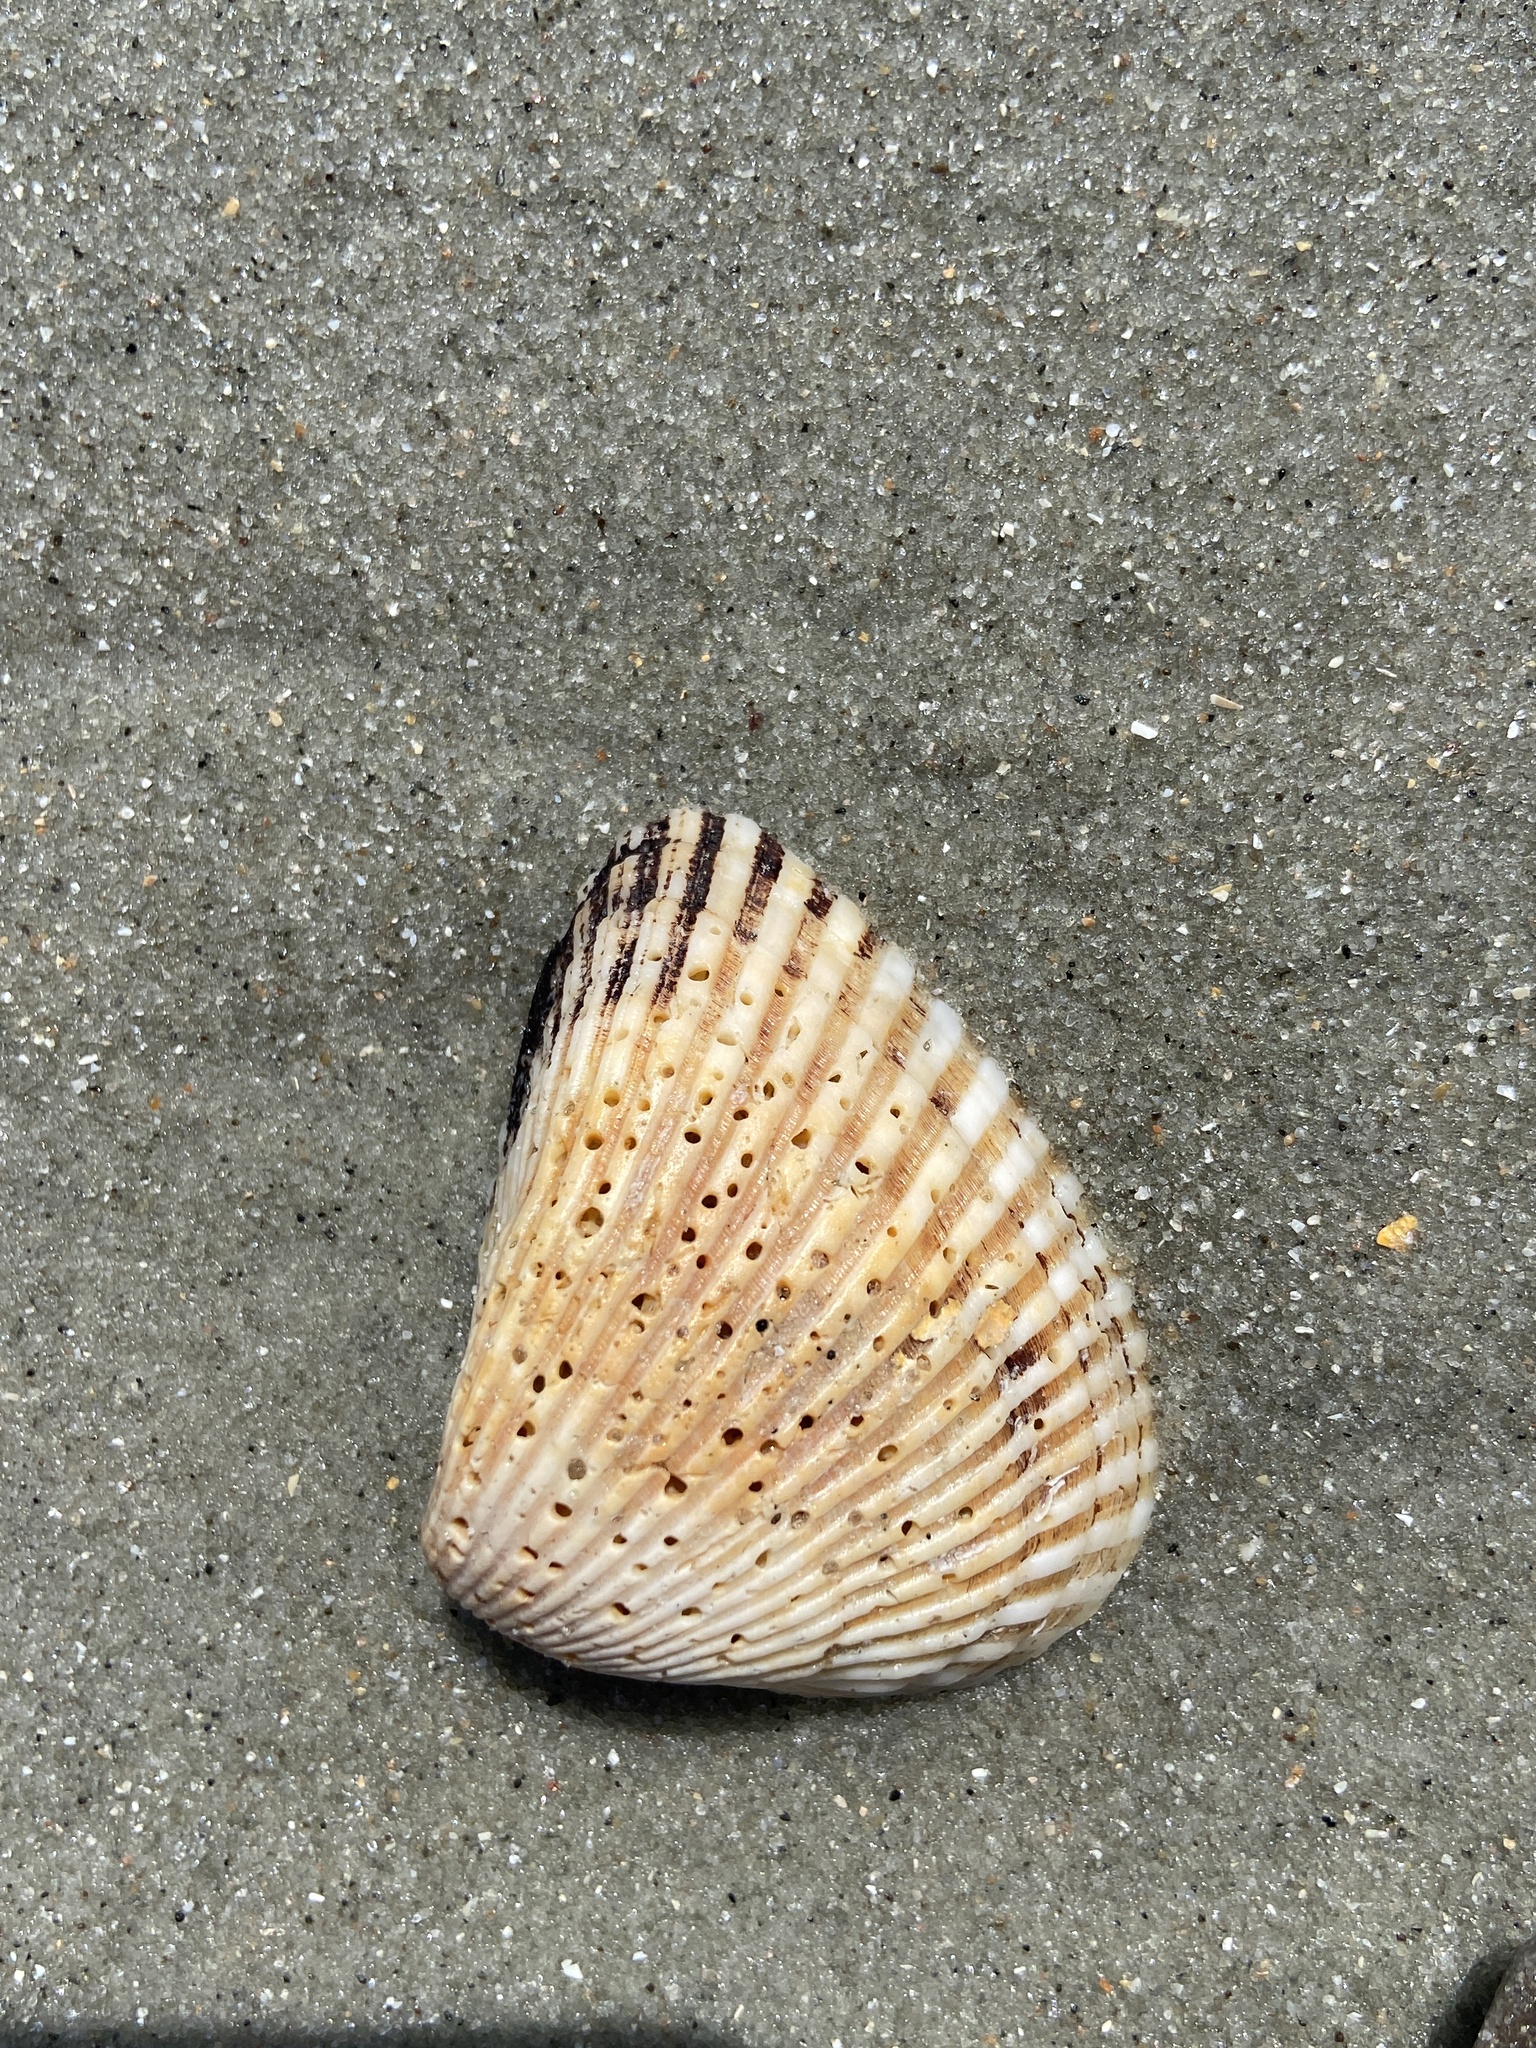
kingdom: Animalia
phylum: Mollusca
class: Bivalvia
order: Arcida
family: Noetiidae
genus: Noetia
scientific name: Noetia ponderosa
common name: Ponderous ark
